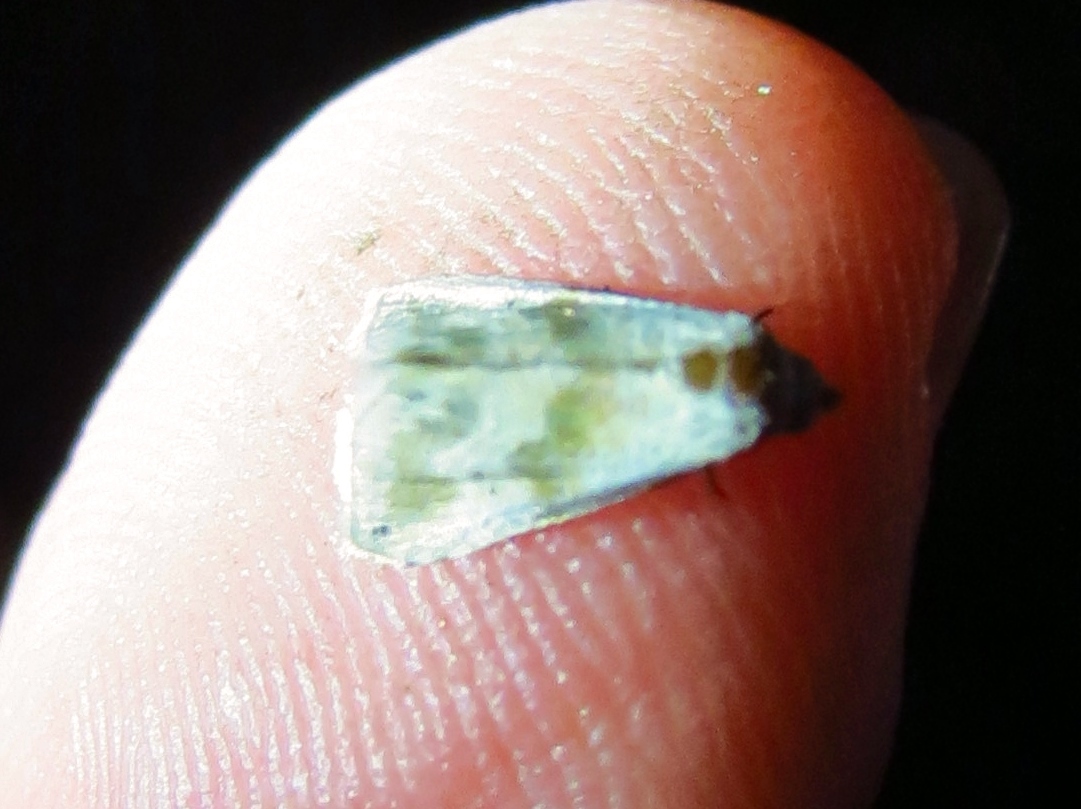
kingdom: Animalia
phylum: Arthropoda
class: Insecta
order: Lepidoptera
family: Noctuidae
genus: Eublemma
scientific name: Eublemma minima
